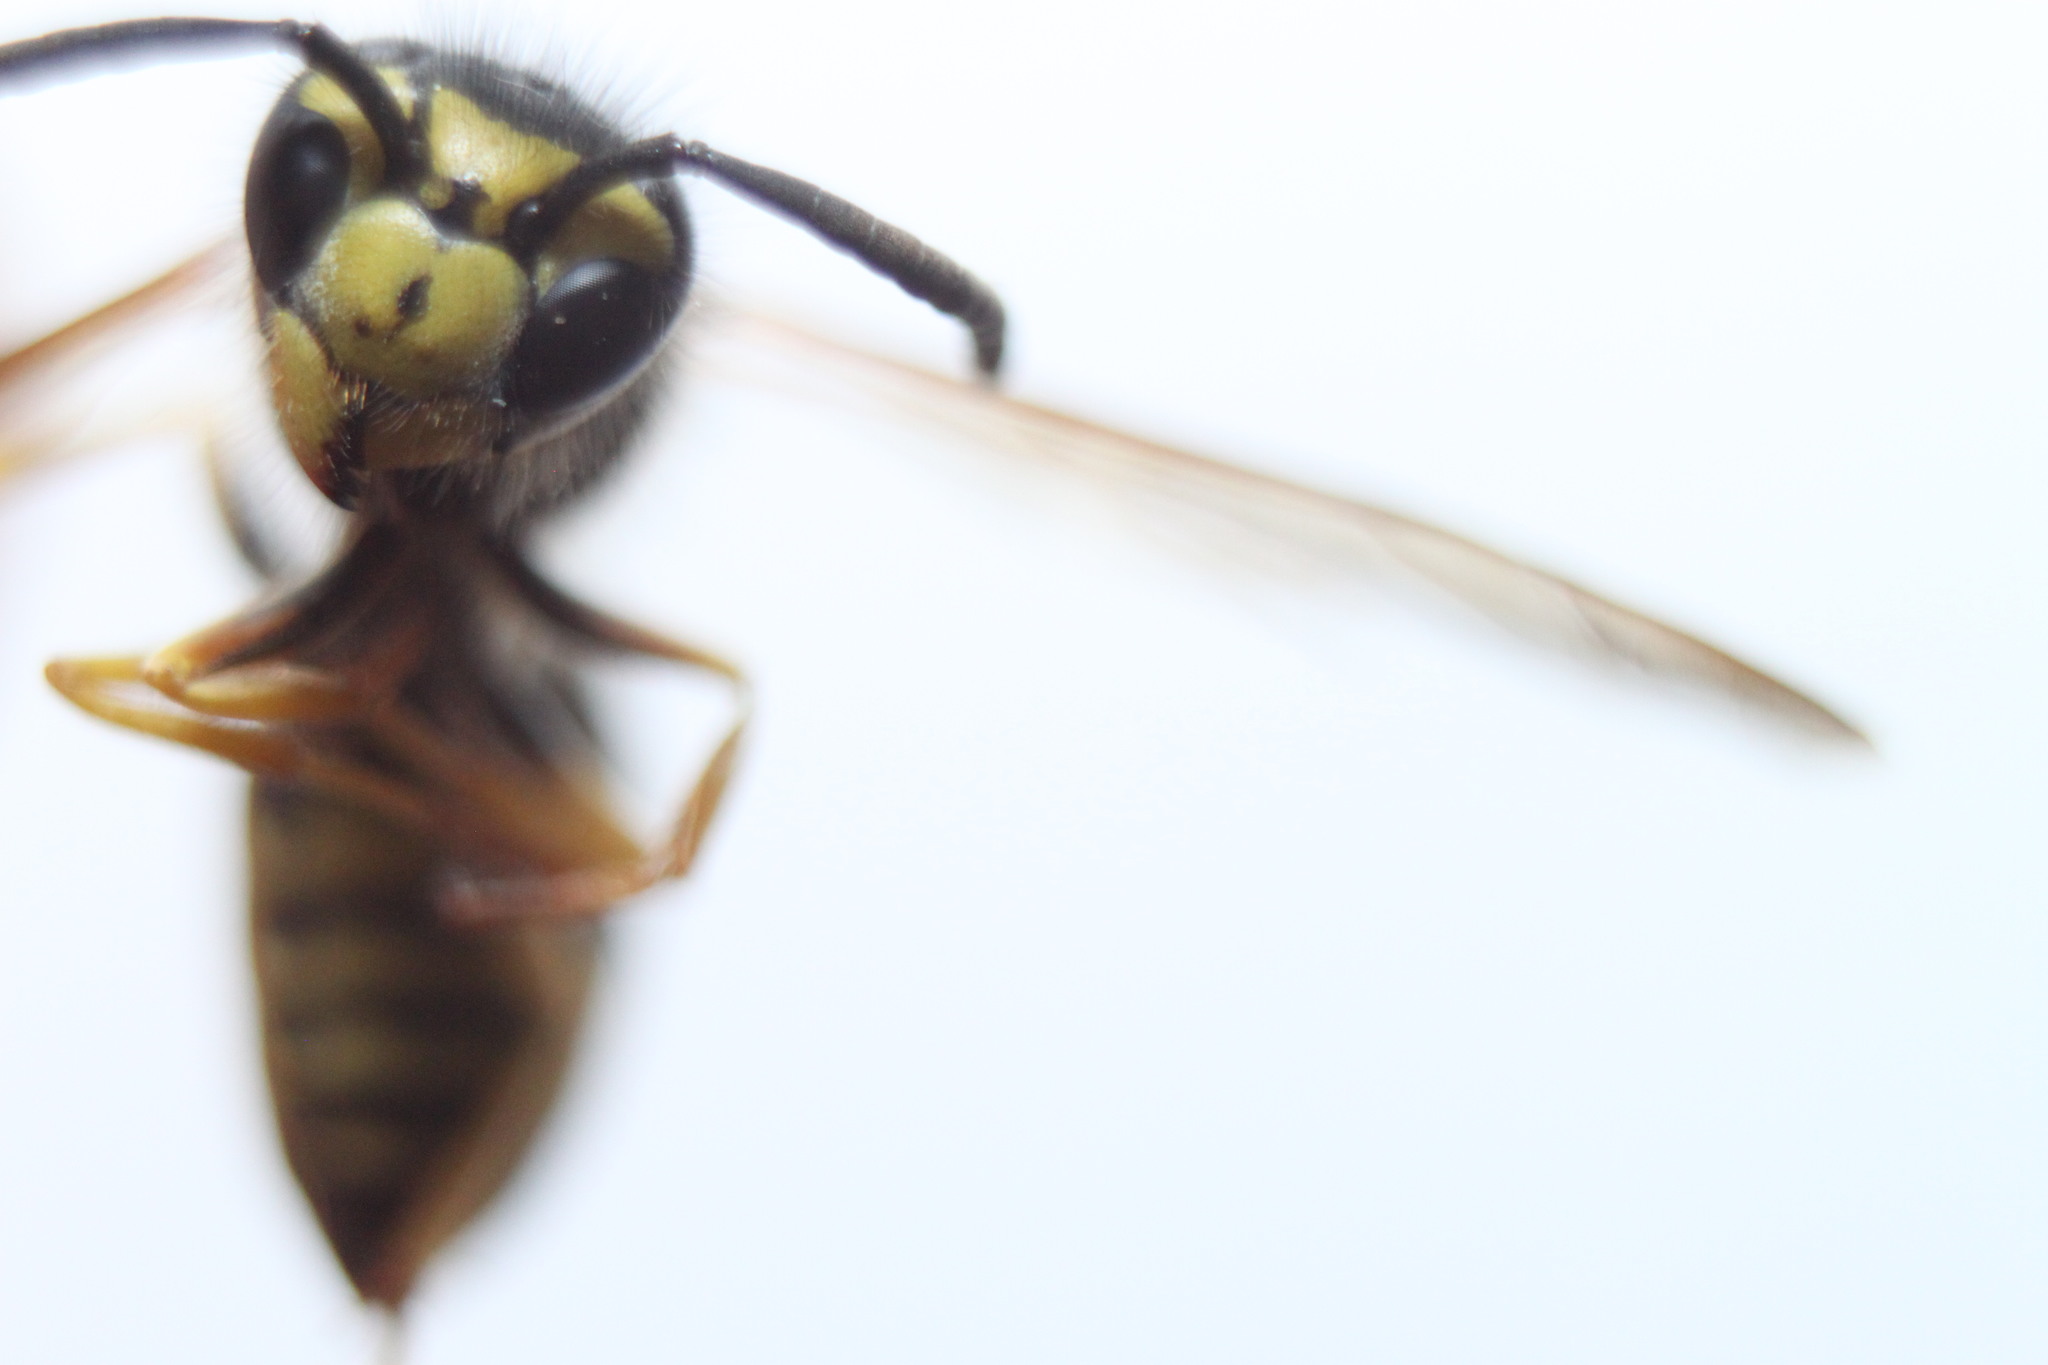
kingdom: Animalia
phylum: Arthropoda
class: Insecta
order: Hymenoptera
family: Vespidae
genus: Vespula
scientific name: Vespula maculifrons
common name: Eastern yellowjacket
